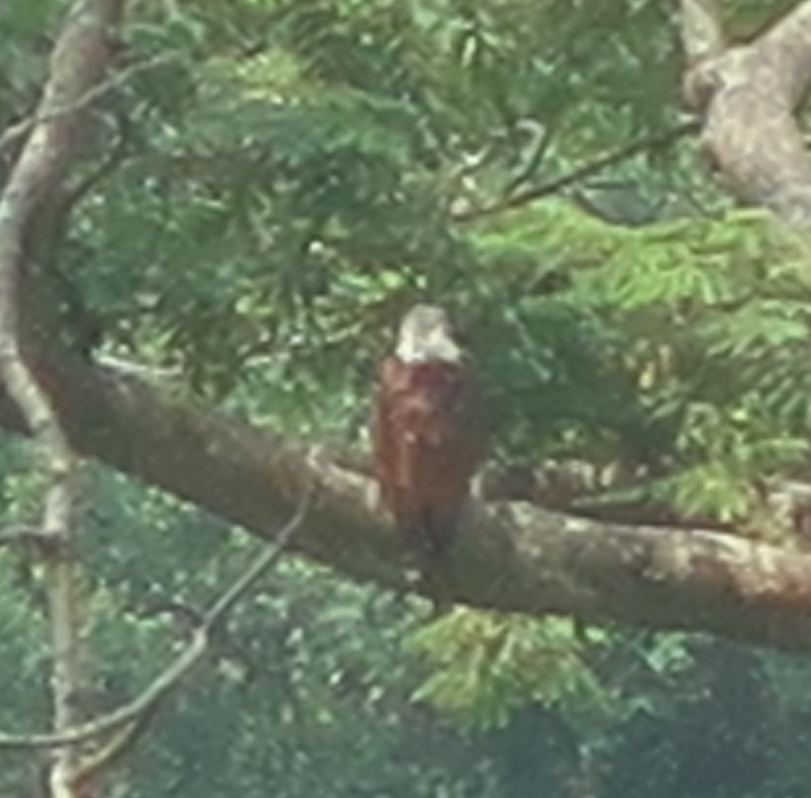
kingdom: Animalia
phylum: Chordata
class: Aves
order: Accipitriformes
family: Accipitridae
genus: Haliastur
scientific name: Haliastur indus
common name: Brahminy kite
